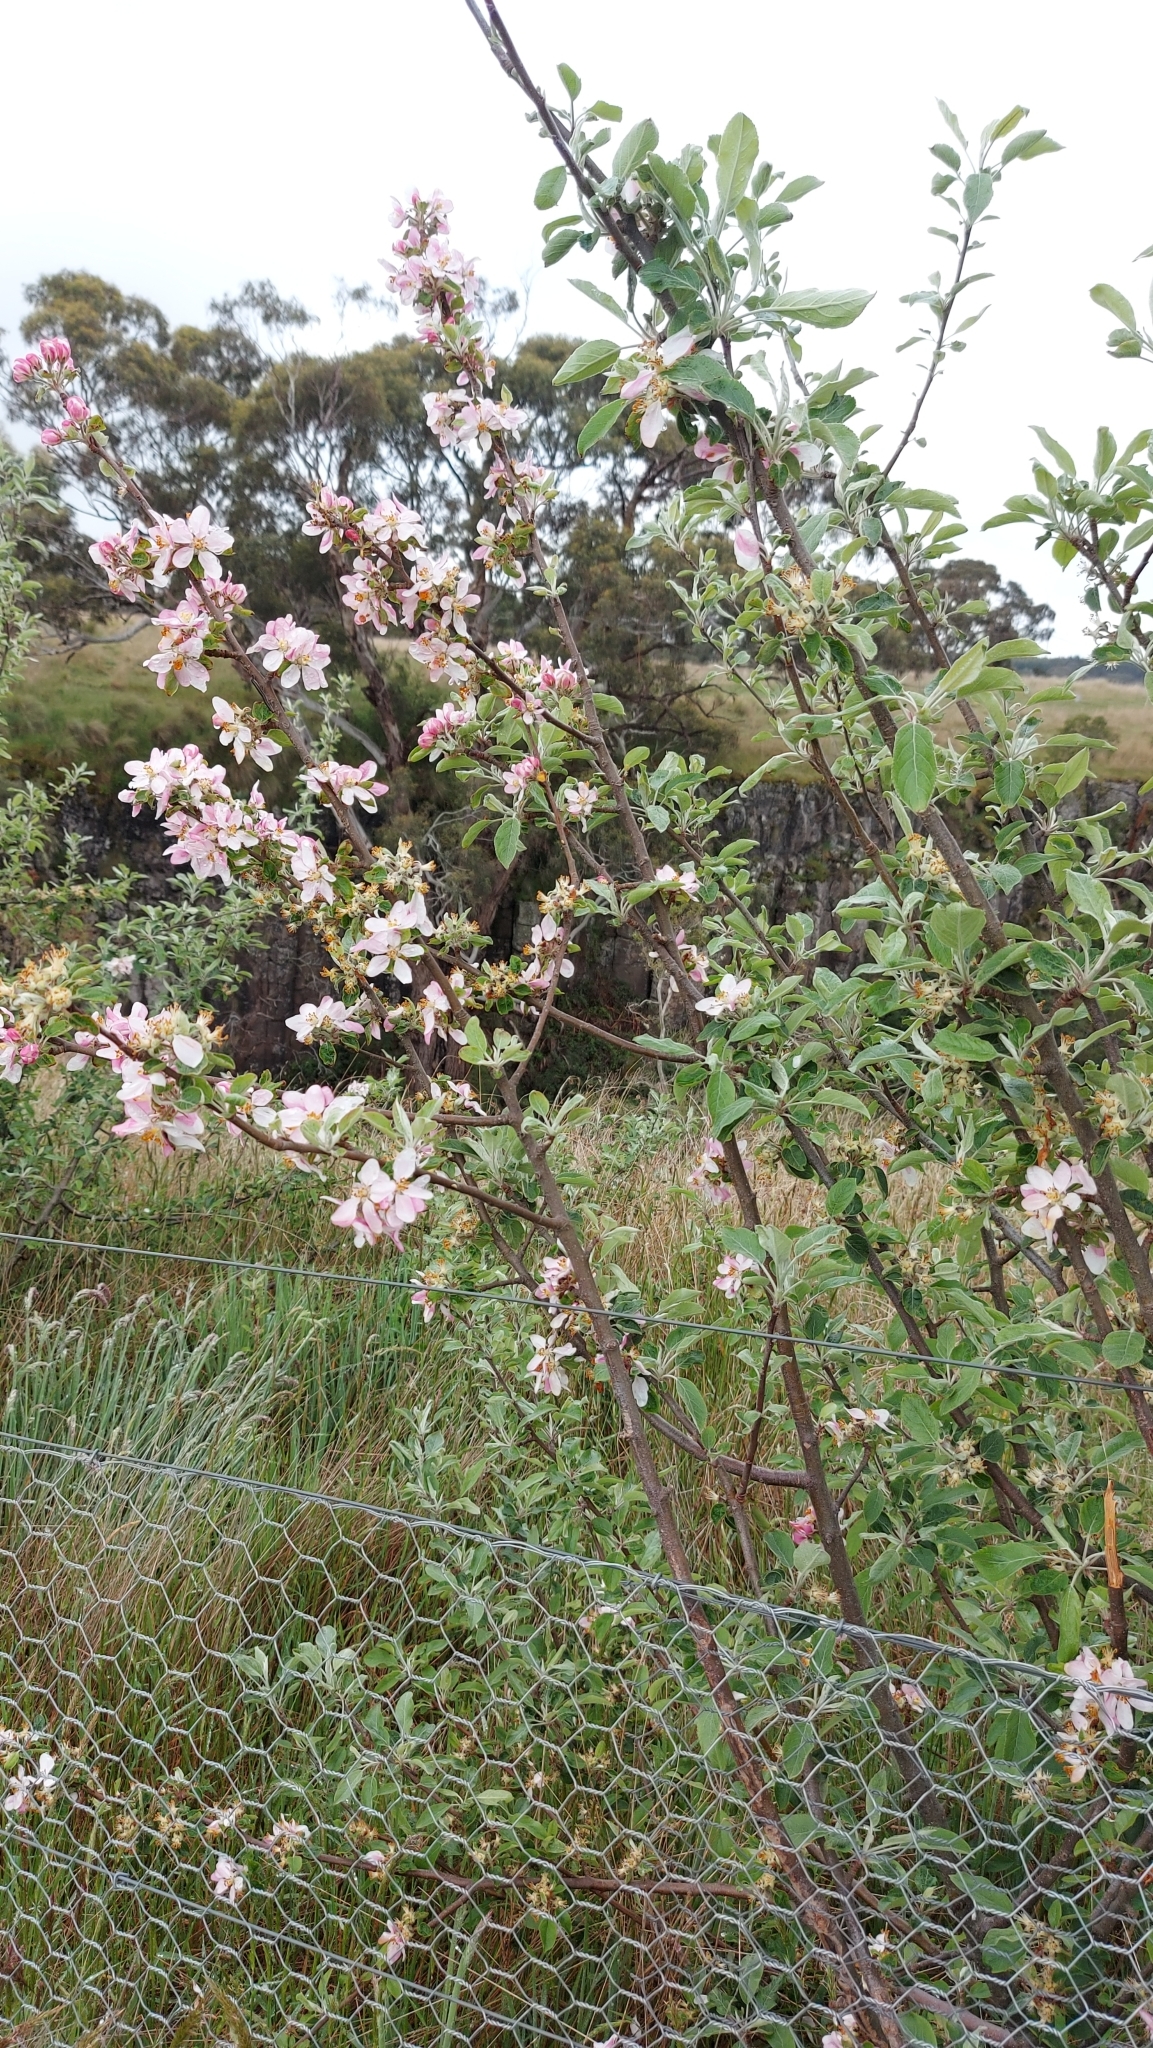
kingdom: Plantae
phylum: Tracheophyta
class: Magnoliopsida
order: Rosales
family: Rosaceae
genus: Malus
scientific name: Malus domestica
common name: Apple
